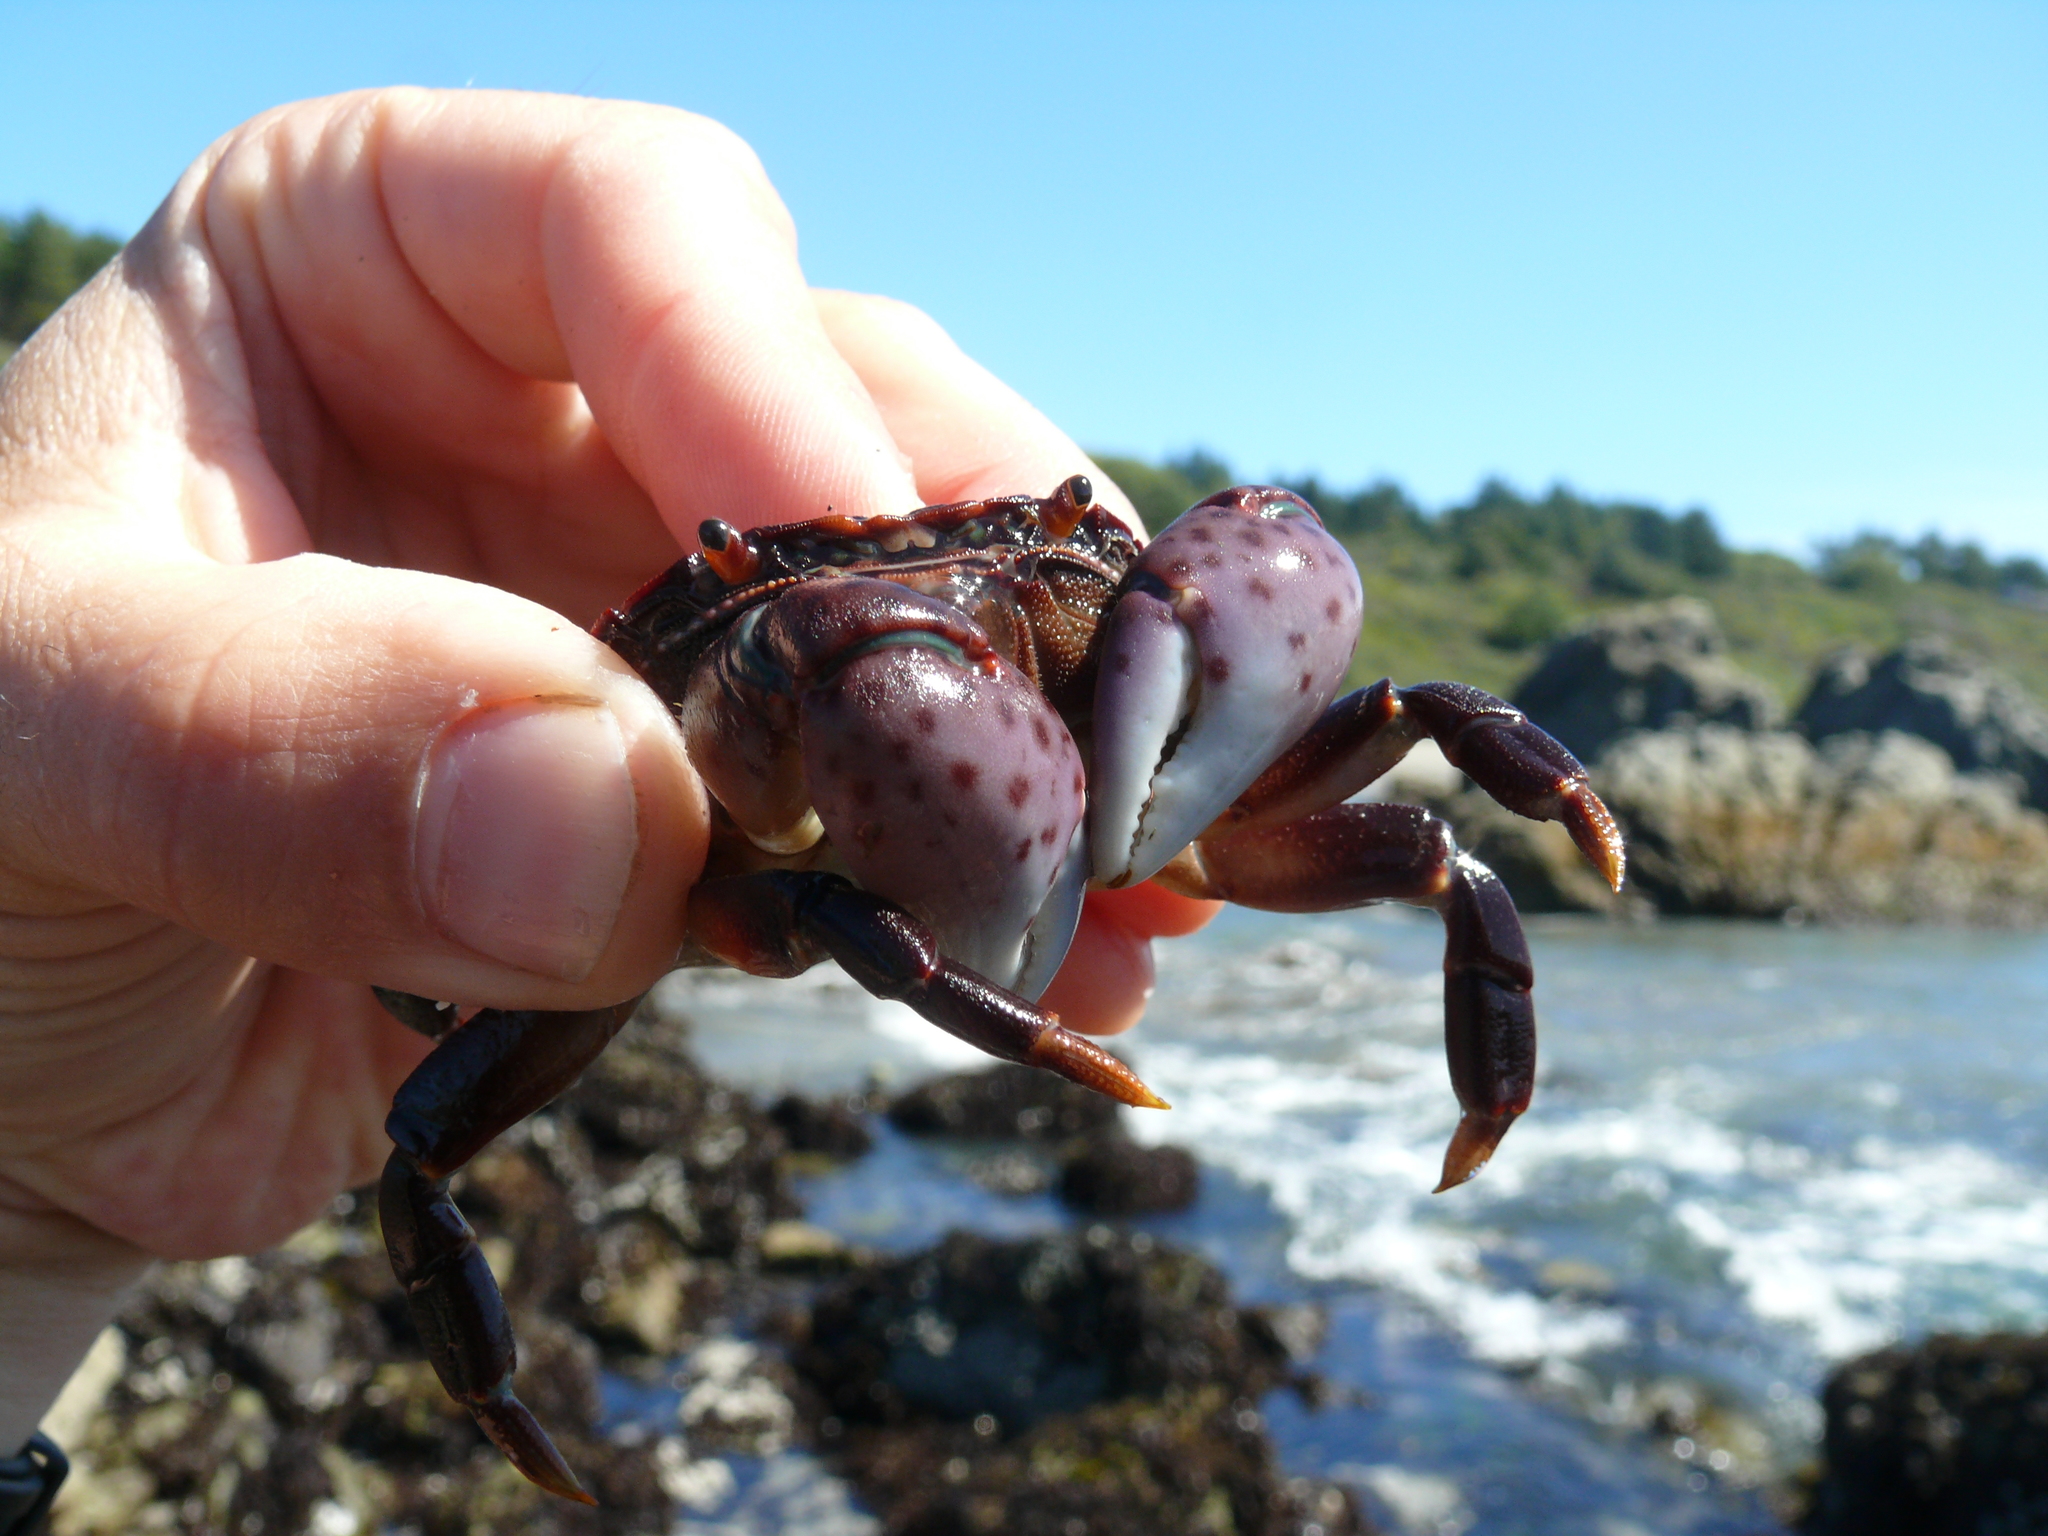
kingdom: Animalia
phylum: Arthropoda
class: Malacostraca
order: Decapoda
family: Varunidae
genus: Hemigrapsus
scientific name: Hemigrapsus nudus
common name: Purple shore crab
